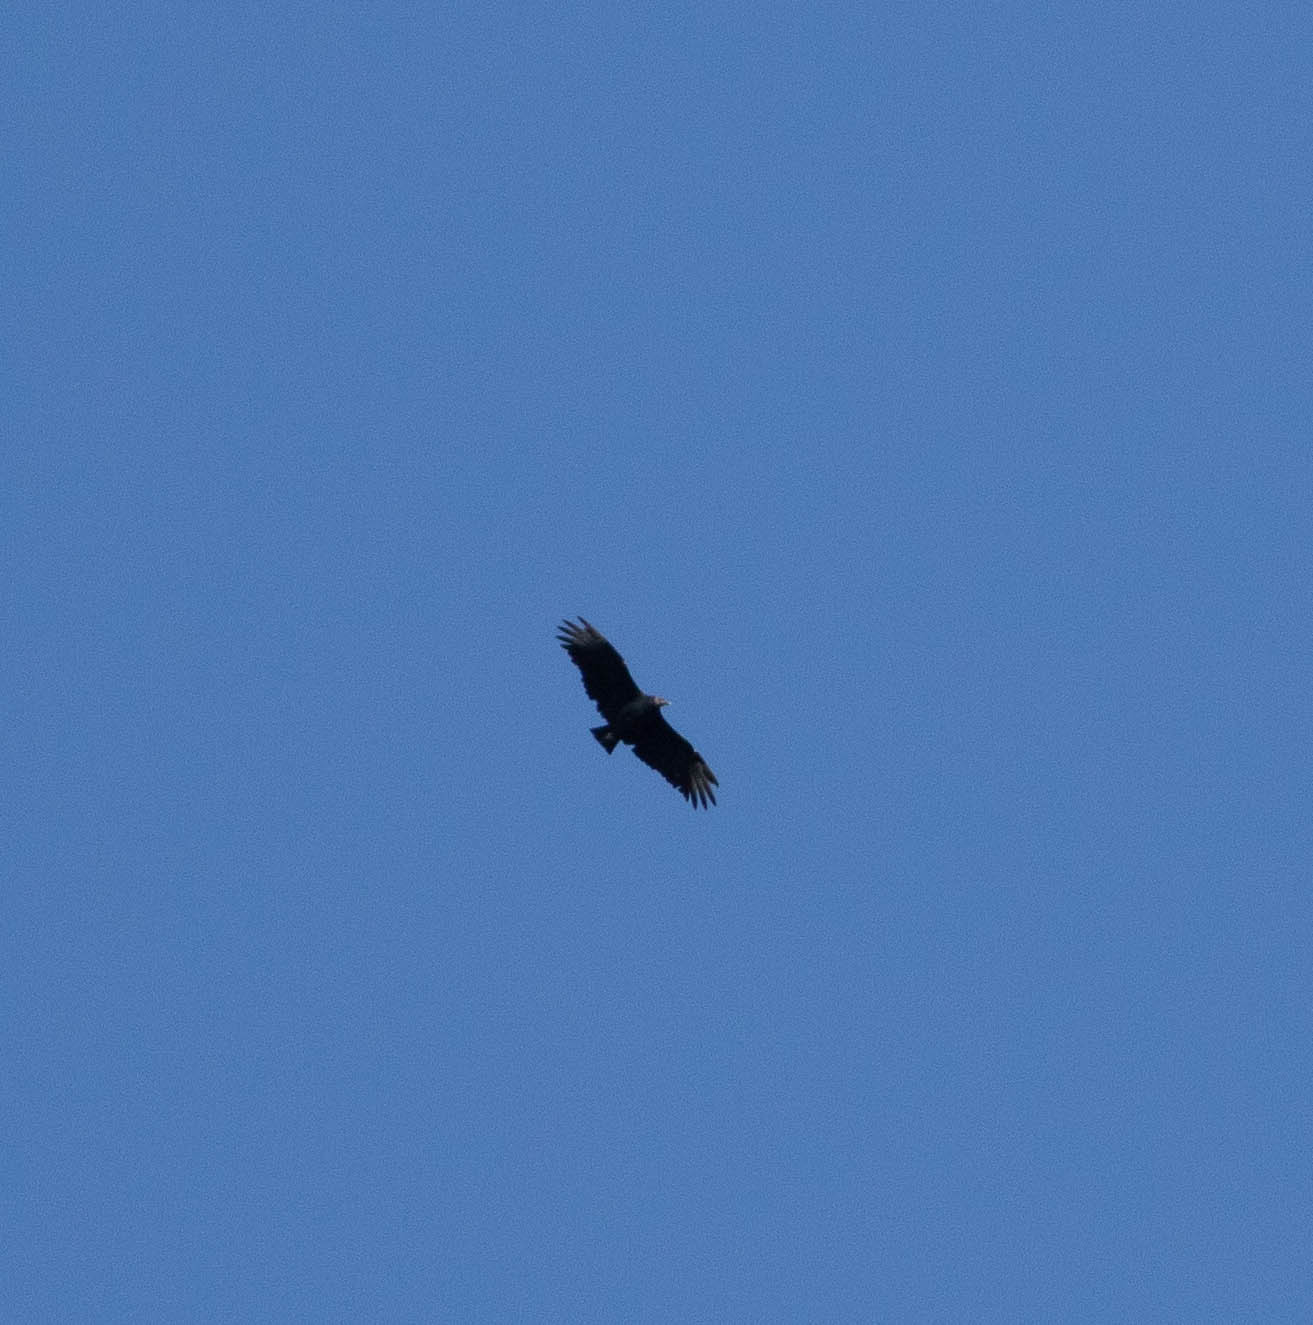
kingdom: Animalia
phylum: Chordata
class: Aves
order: Accipitriformes
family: Cathartidae
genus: Coragyps
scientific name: Coragyps atratus
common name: Black vulture
